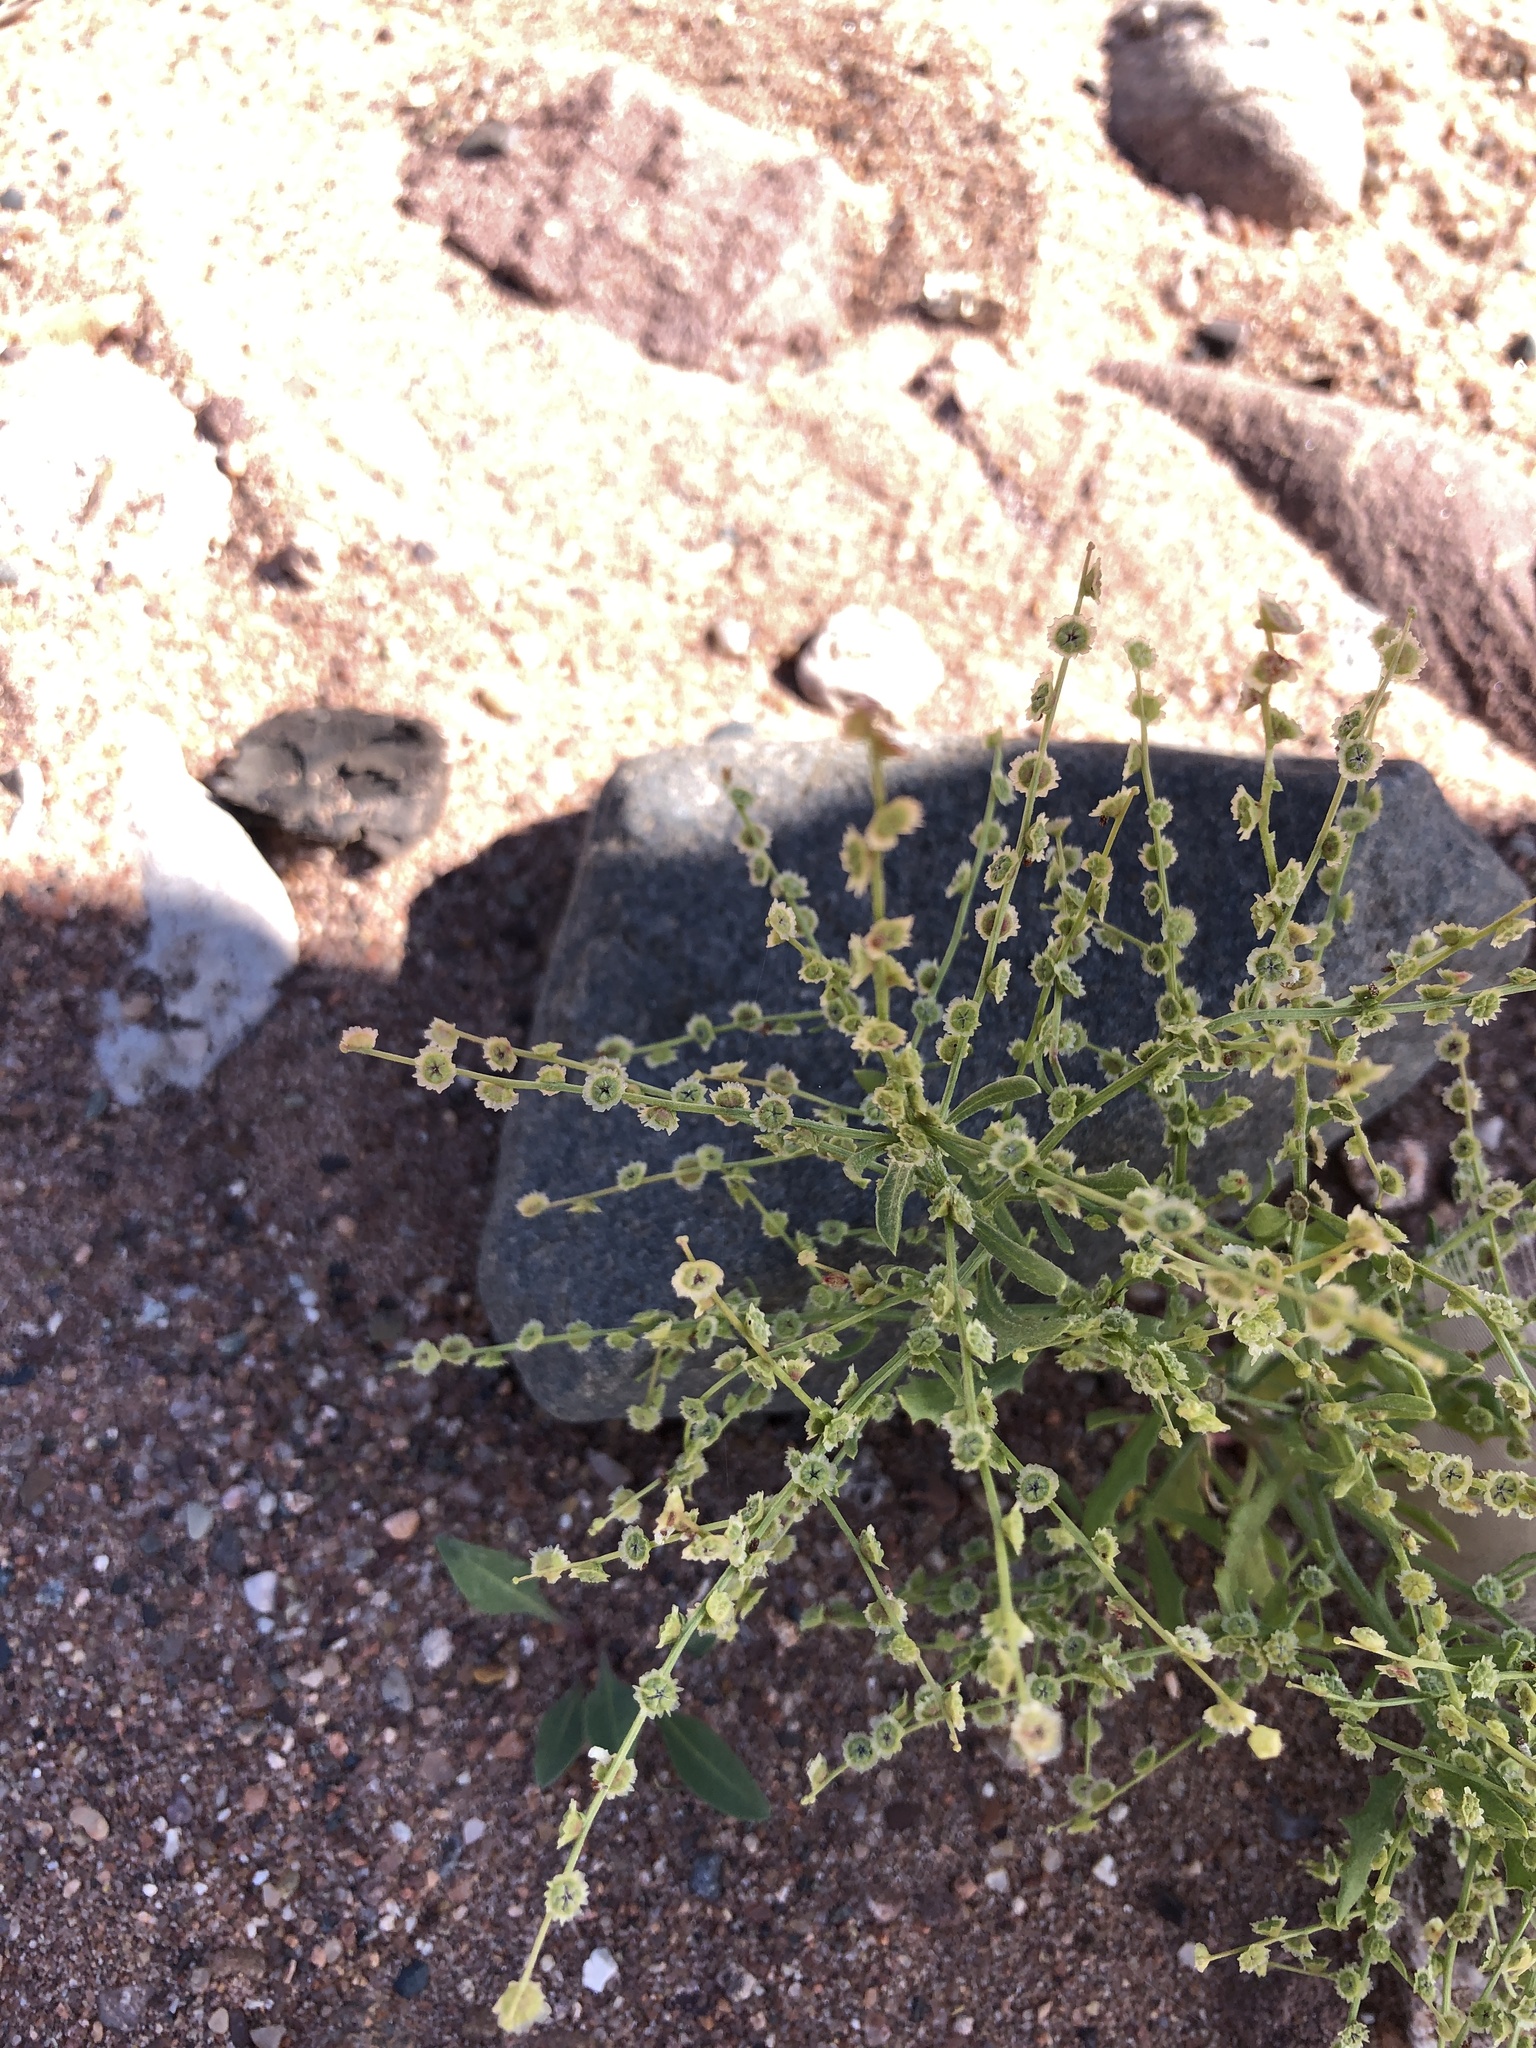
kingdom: Plantae
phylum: Tracheophyta
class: Magnoliopsida
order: Caryophyllales
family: Amaranthaceae
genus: Dysphania
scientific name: Dysphania atriplicifolia
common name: Plains tumbleweed
